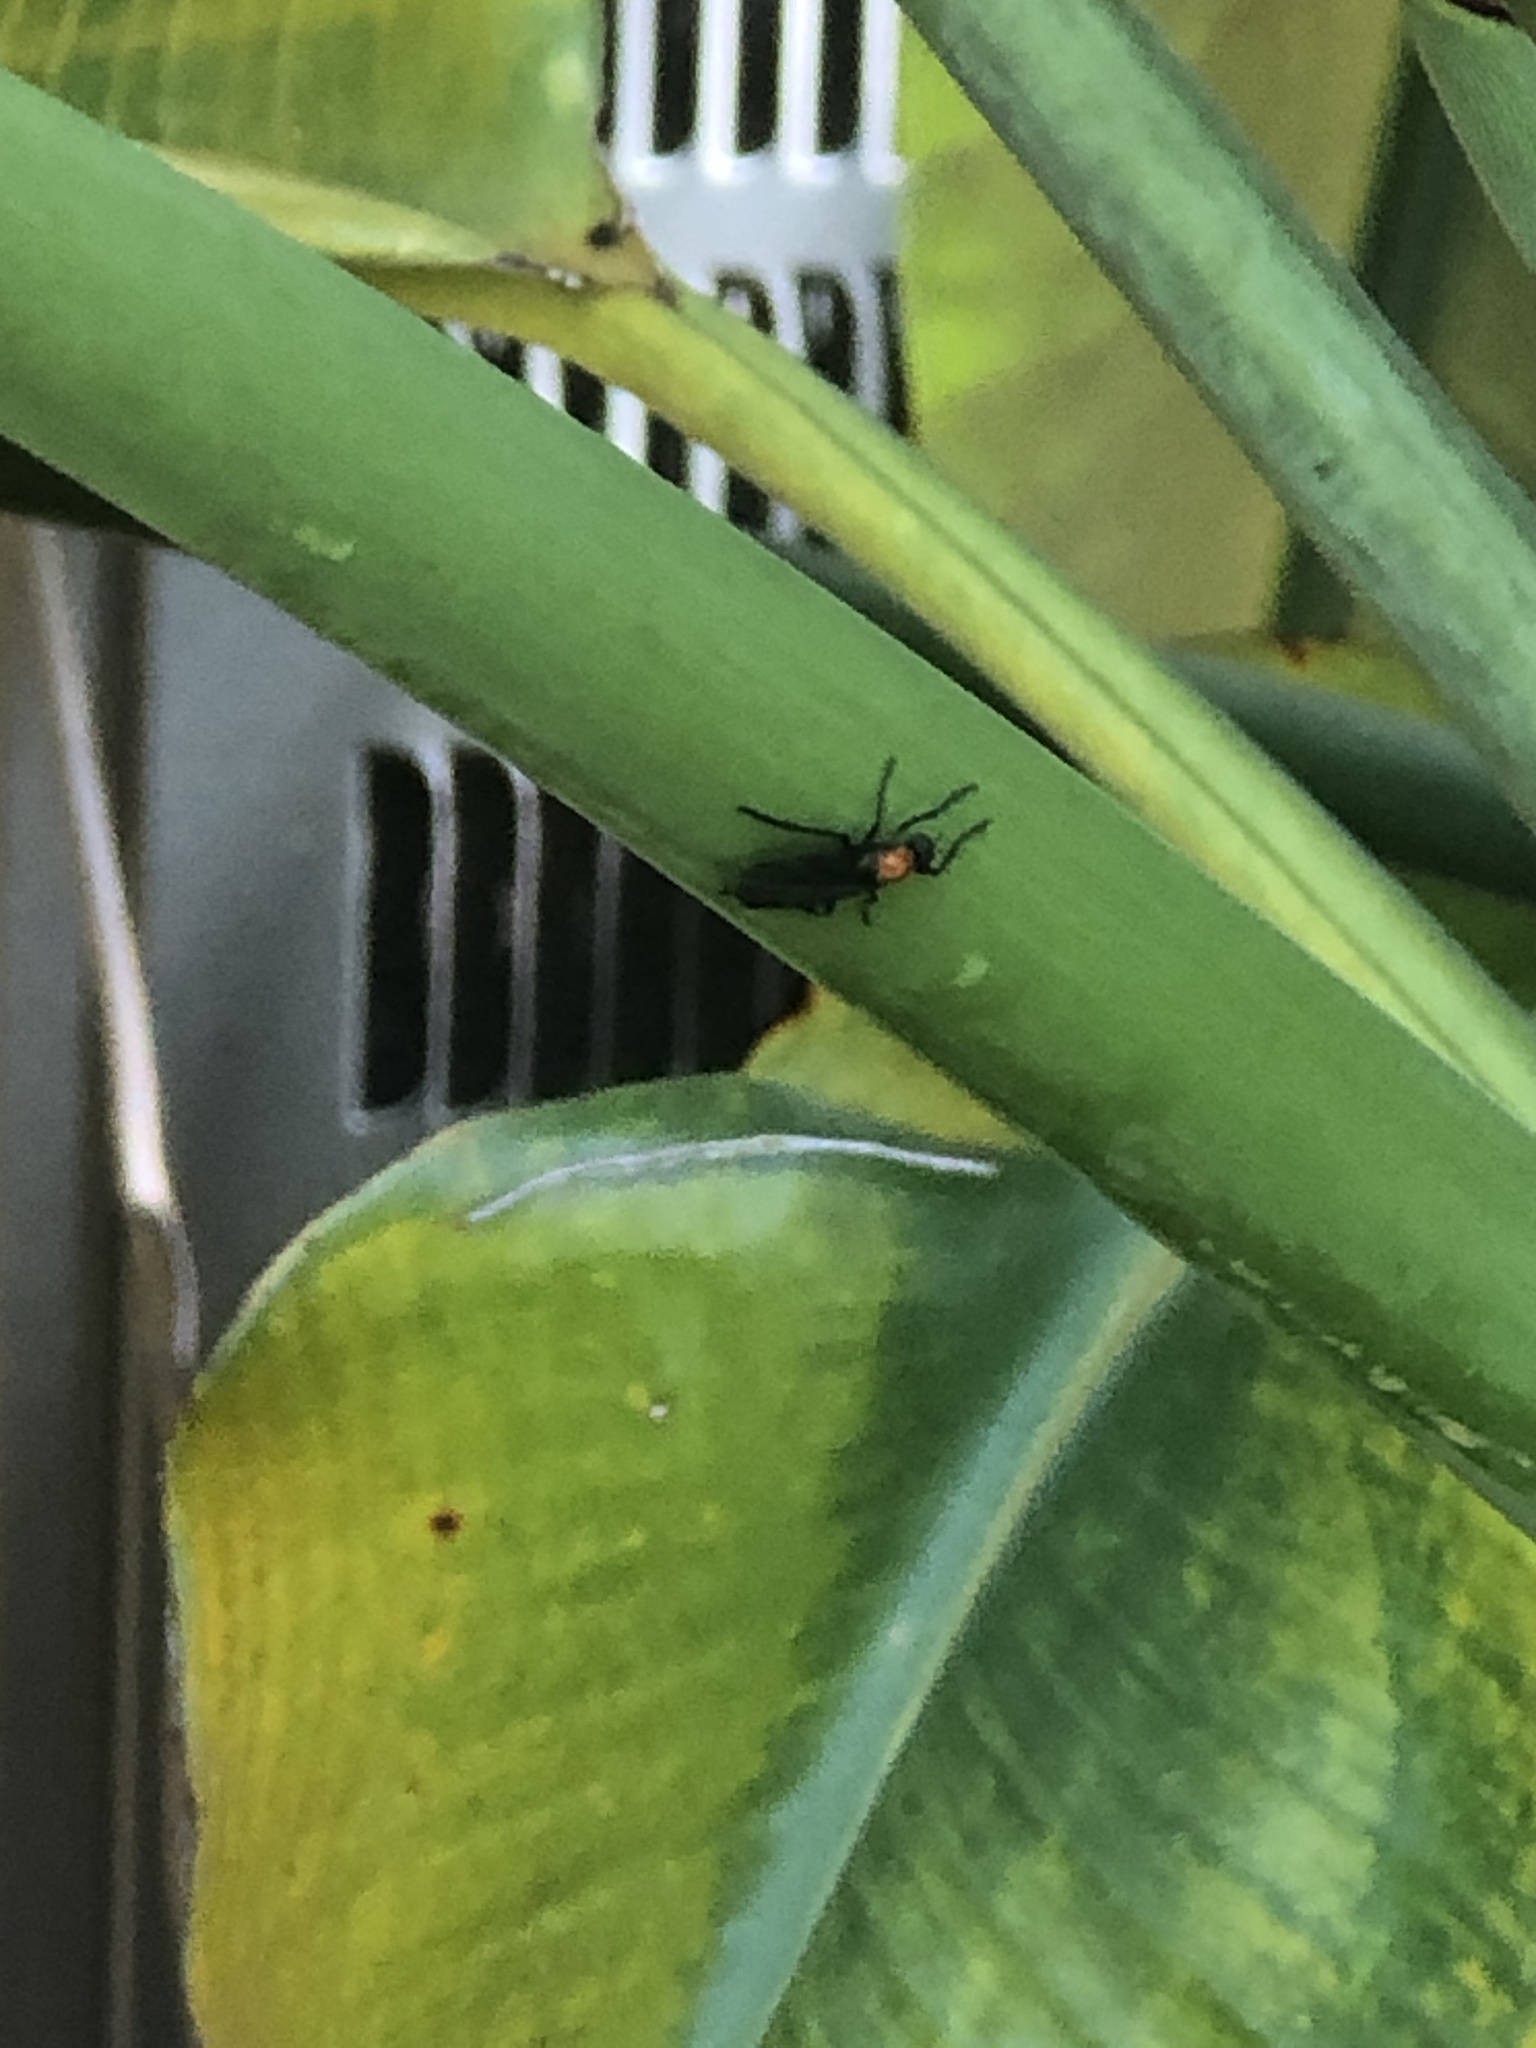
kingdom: Animalia
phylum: Arthropoda
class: Insecta
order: Diptera
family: Bibionidae
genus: Plecia
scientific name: Plecia nearctica
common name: March fly
